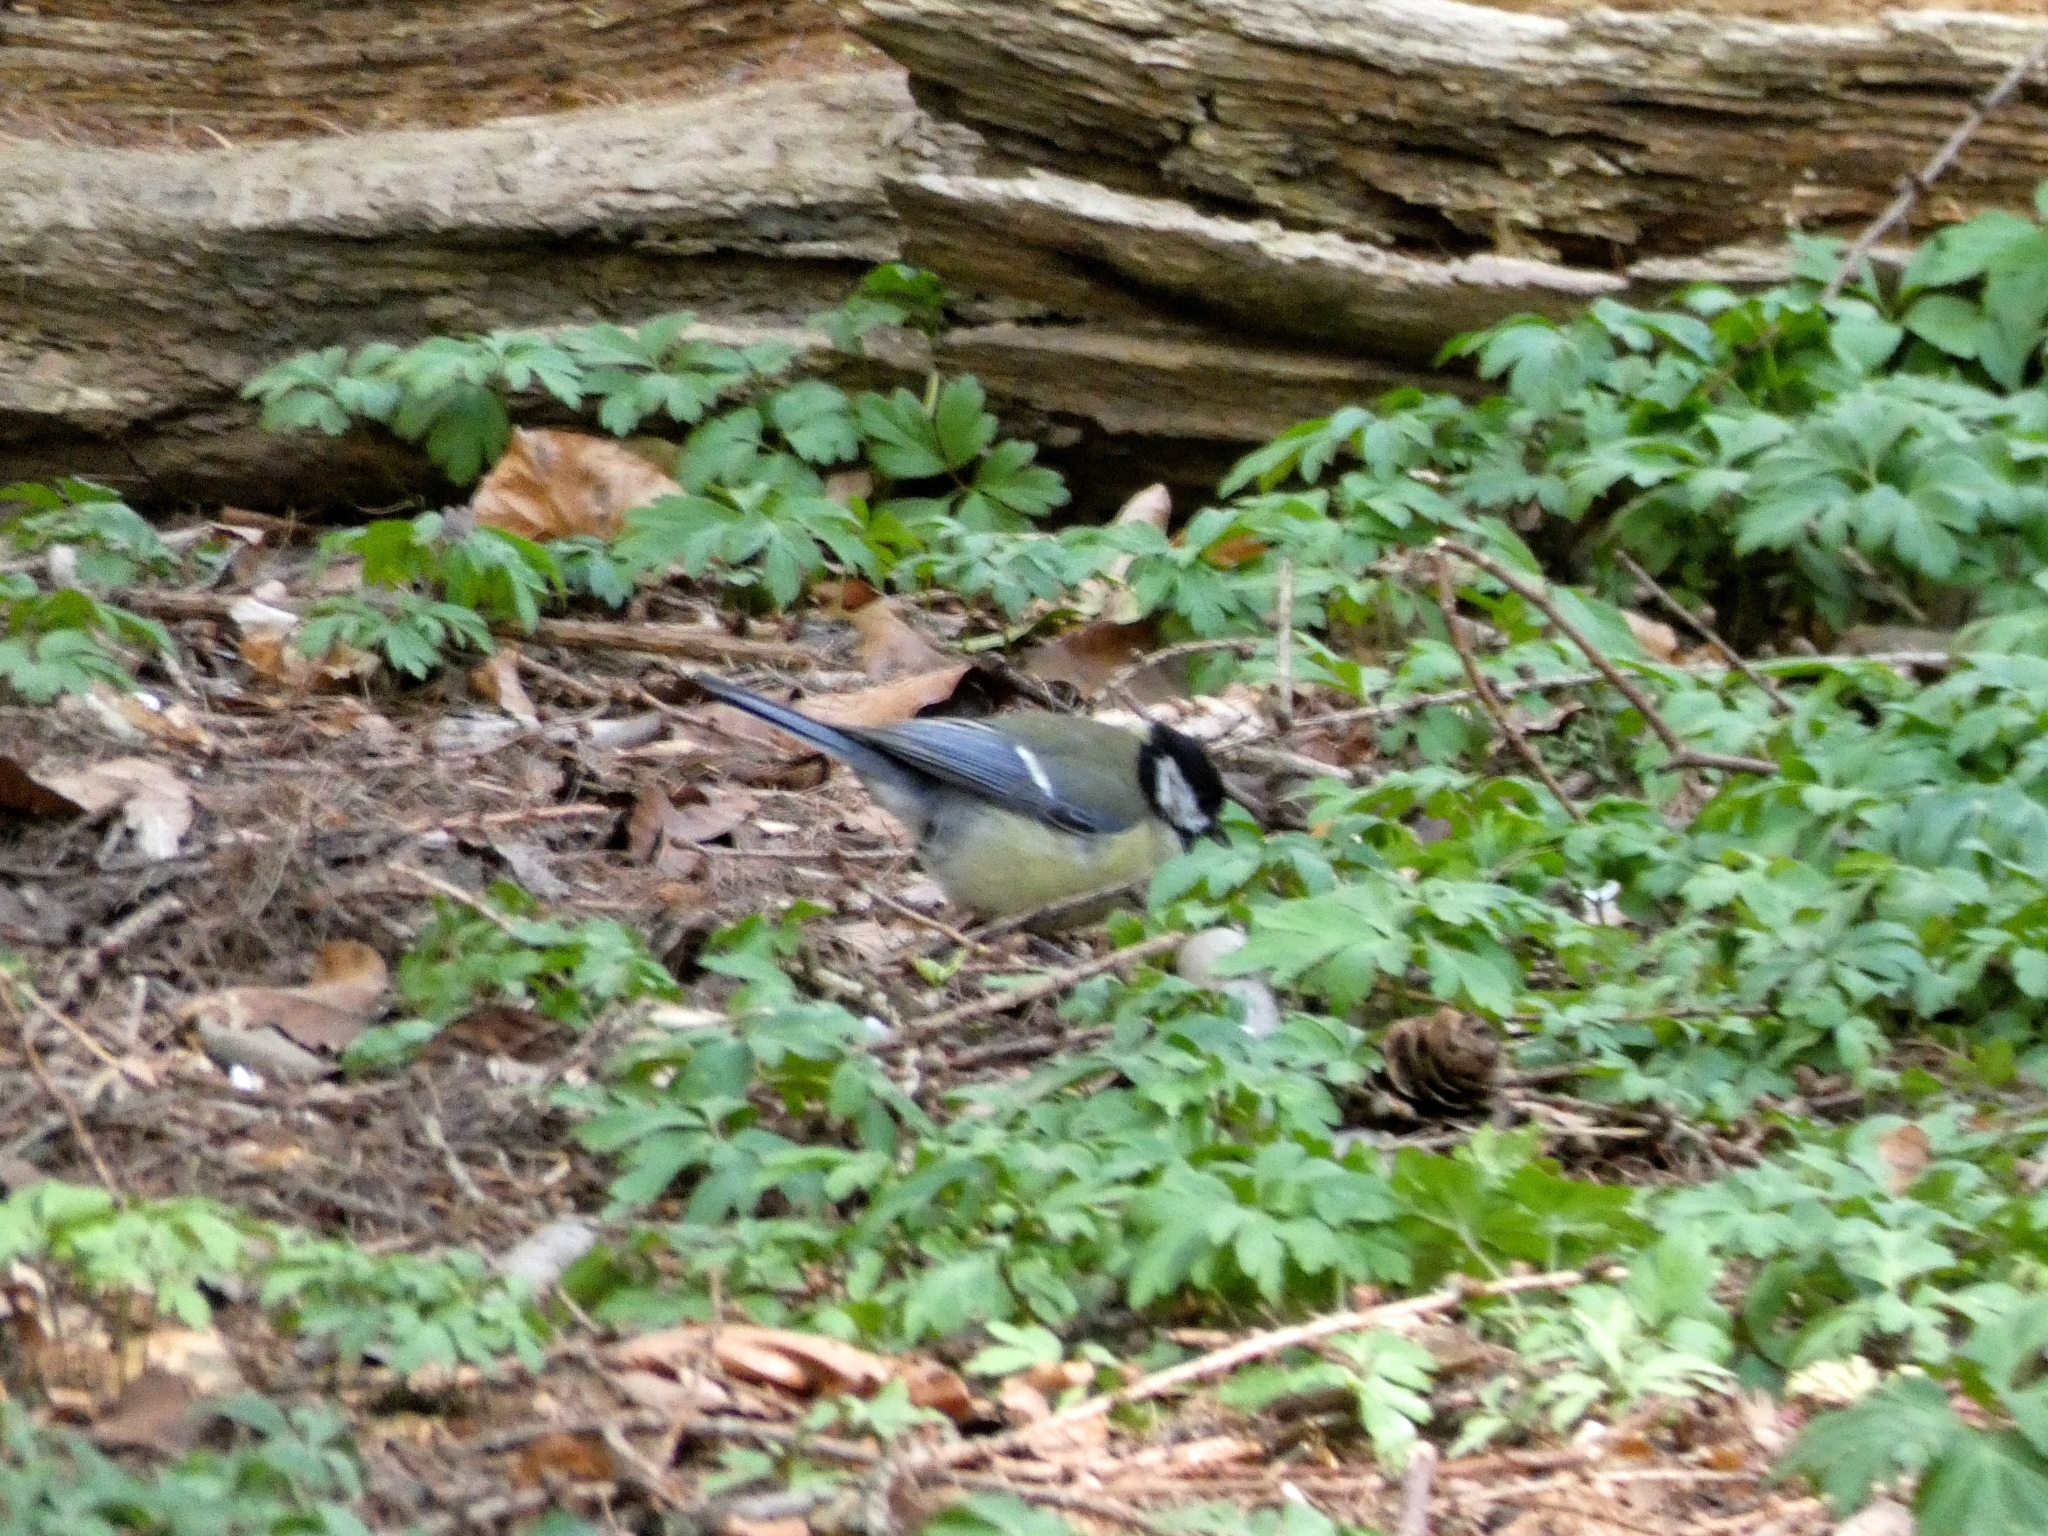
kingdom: Animalia
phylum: Chordata
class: Aves
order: Passeriformes
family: Paridae
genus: Parus
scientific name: Parus major
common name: Great tit
